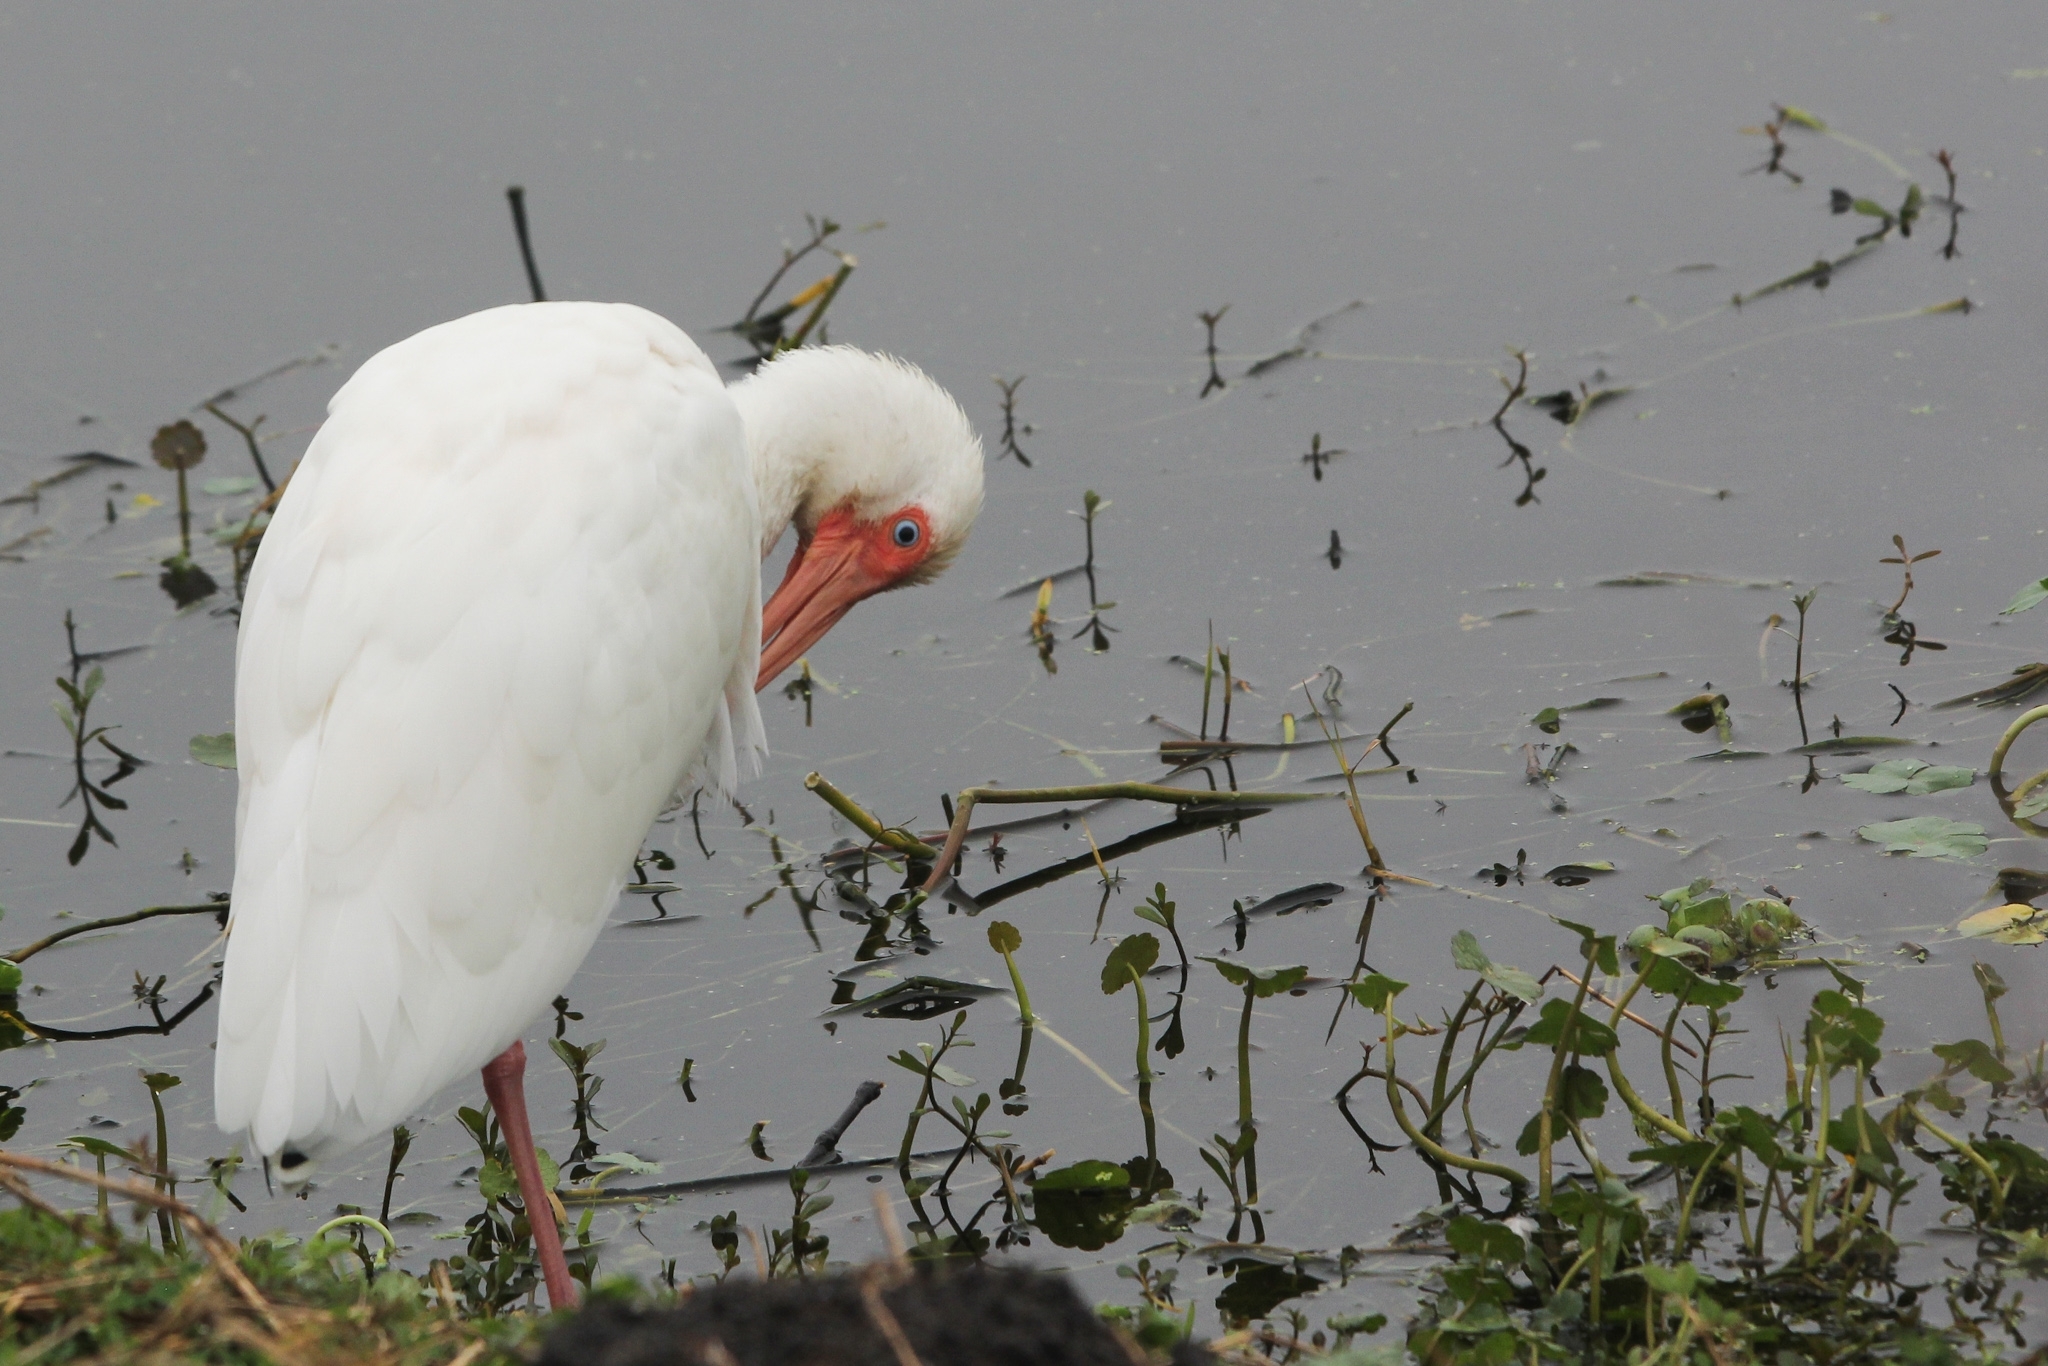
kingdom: Animalia
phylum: Chordata
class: Aves
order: Pelecaniformes
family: Threskiornithidae
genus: Eudocimus
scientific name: Eudocimus albus
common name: White ibis
